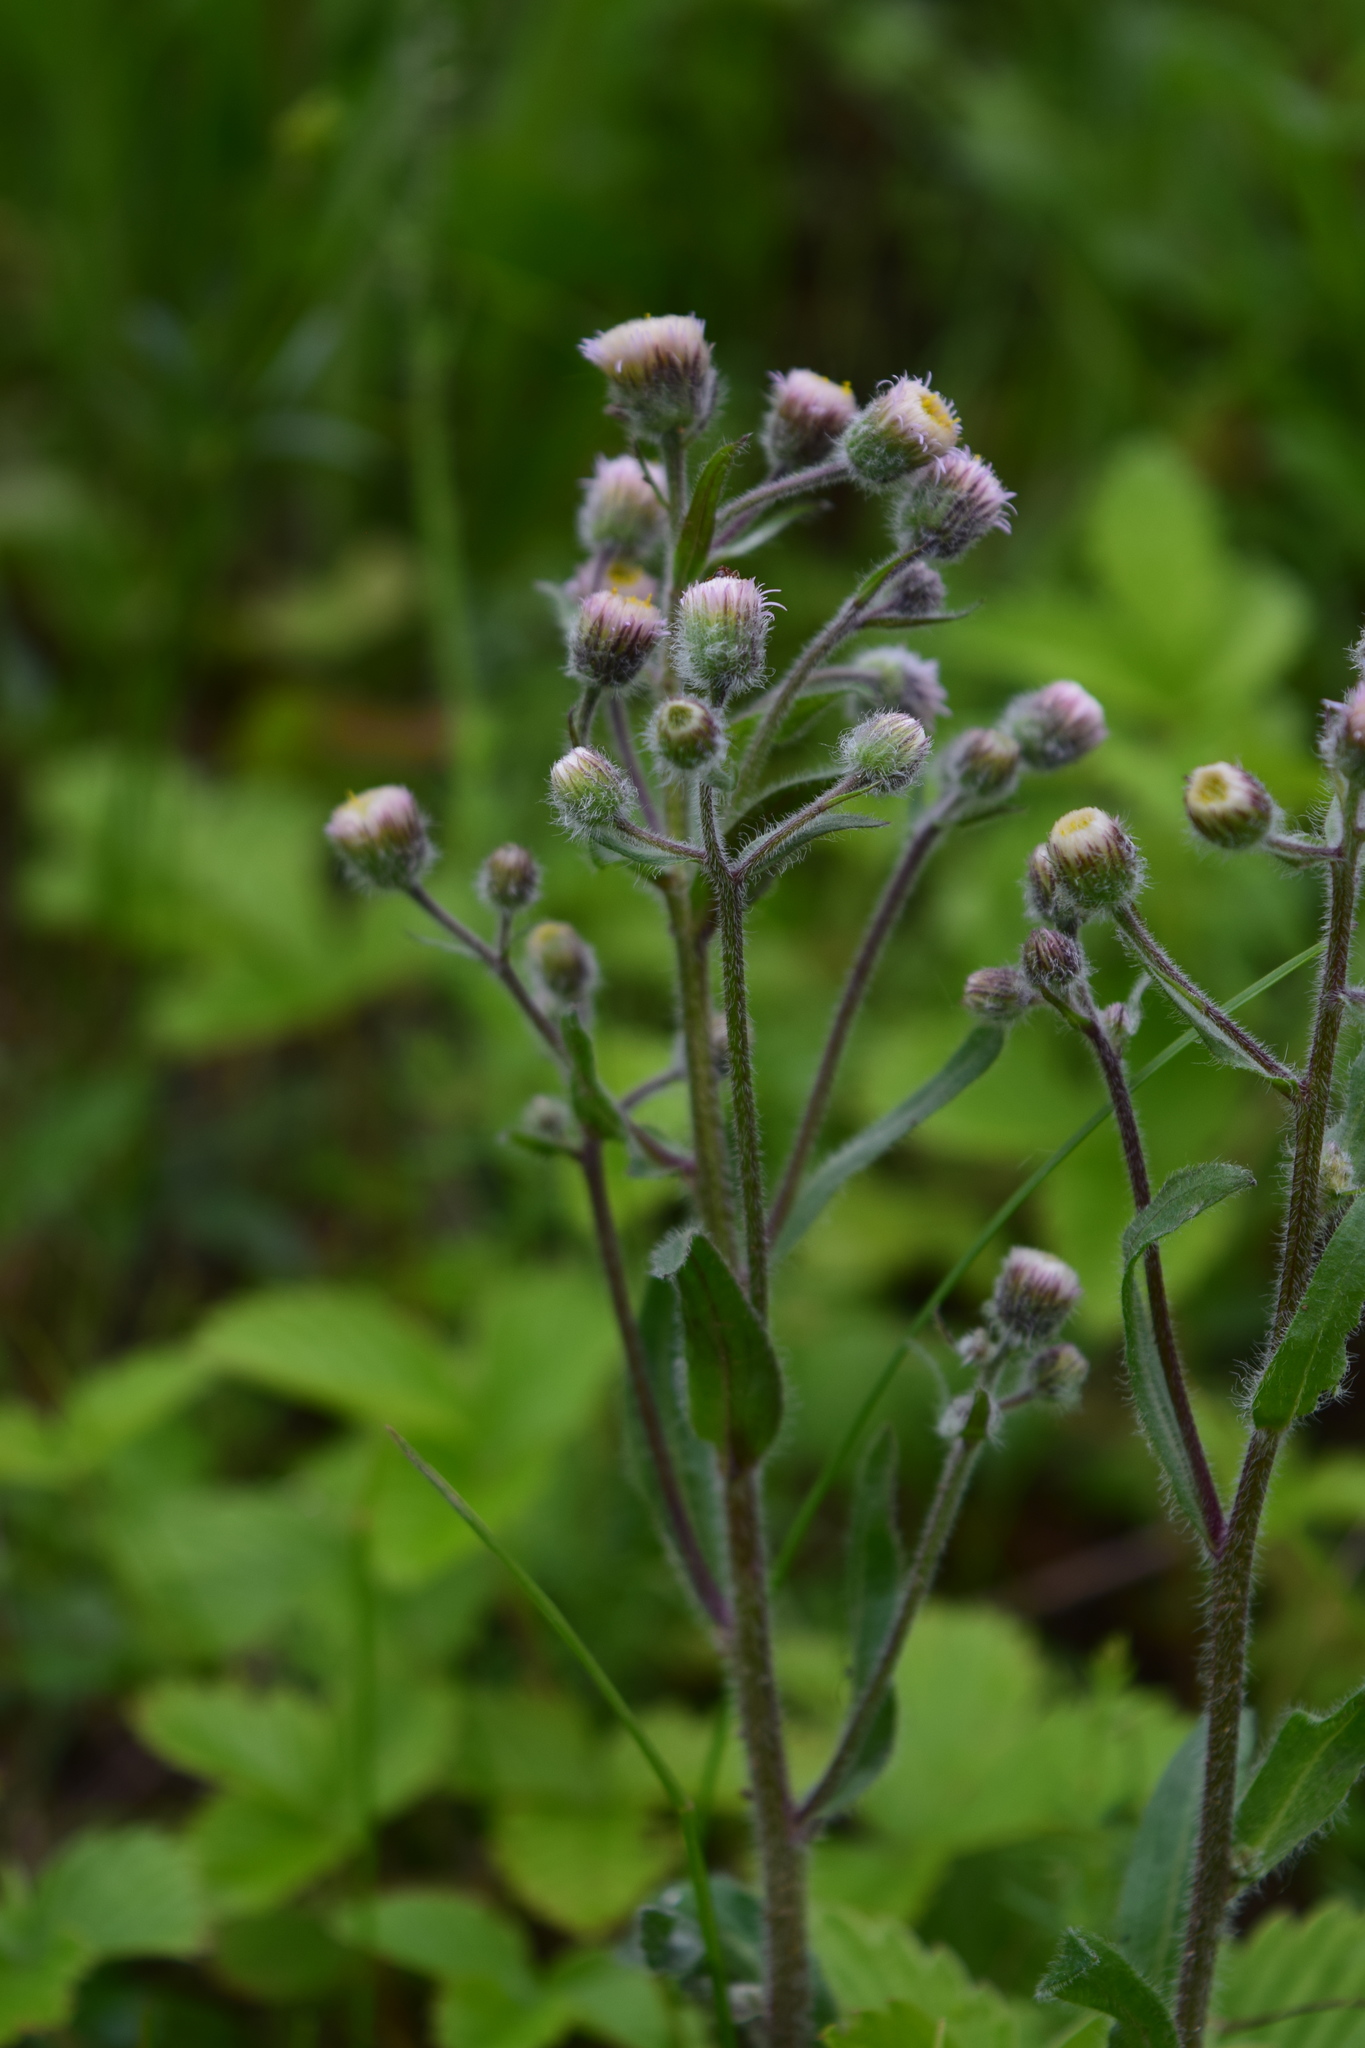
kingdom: Plantae
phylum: Tracheophyta
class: Magnoliopsida
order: Asterales
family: Asteraceae
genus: Erigeron
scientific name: Erigeron acris
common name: Blue fleabane
